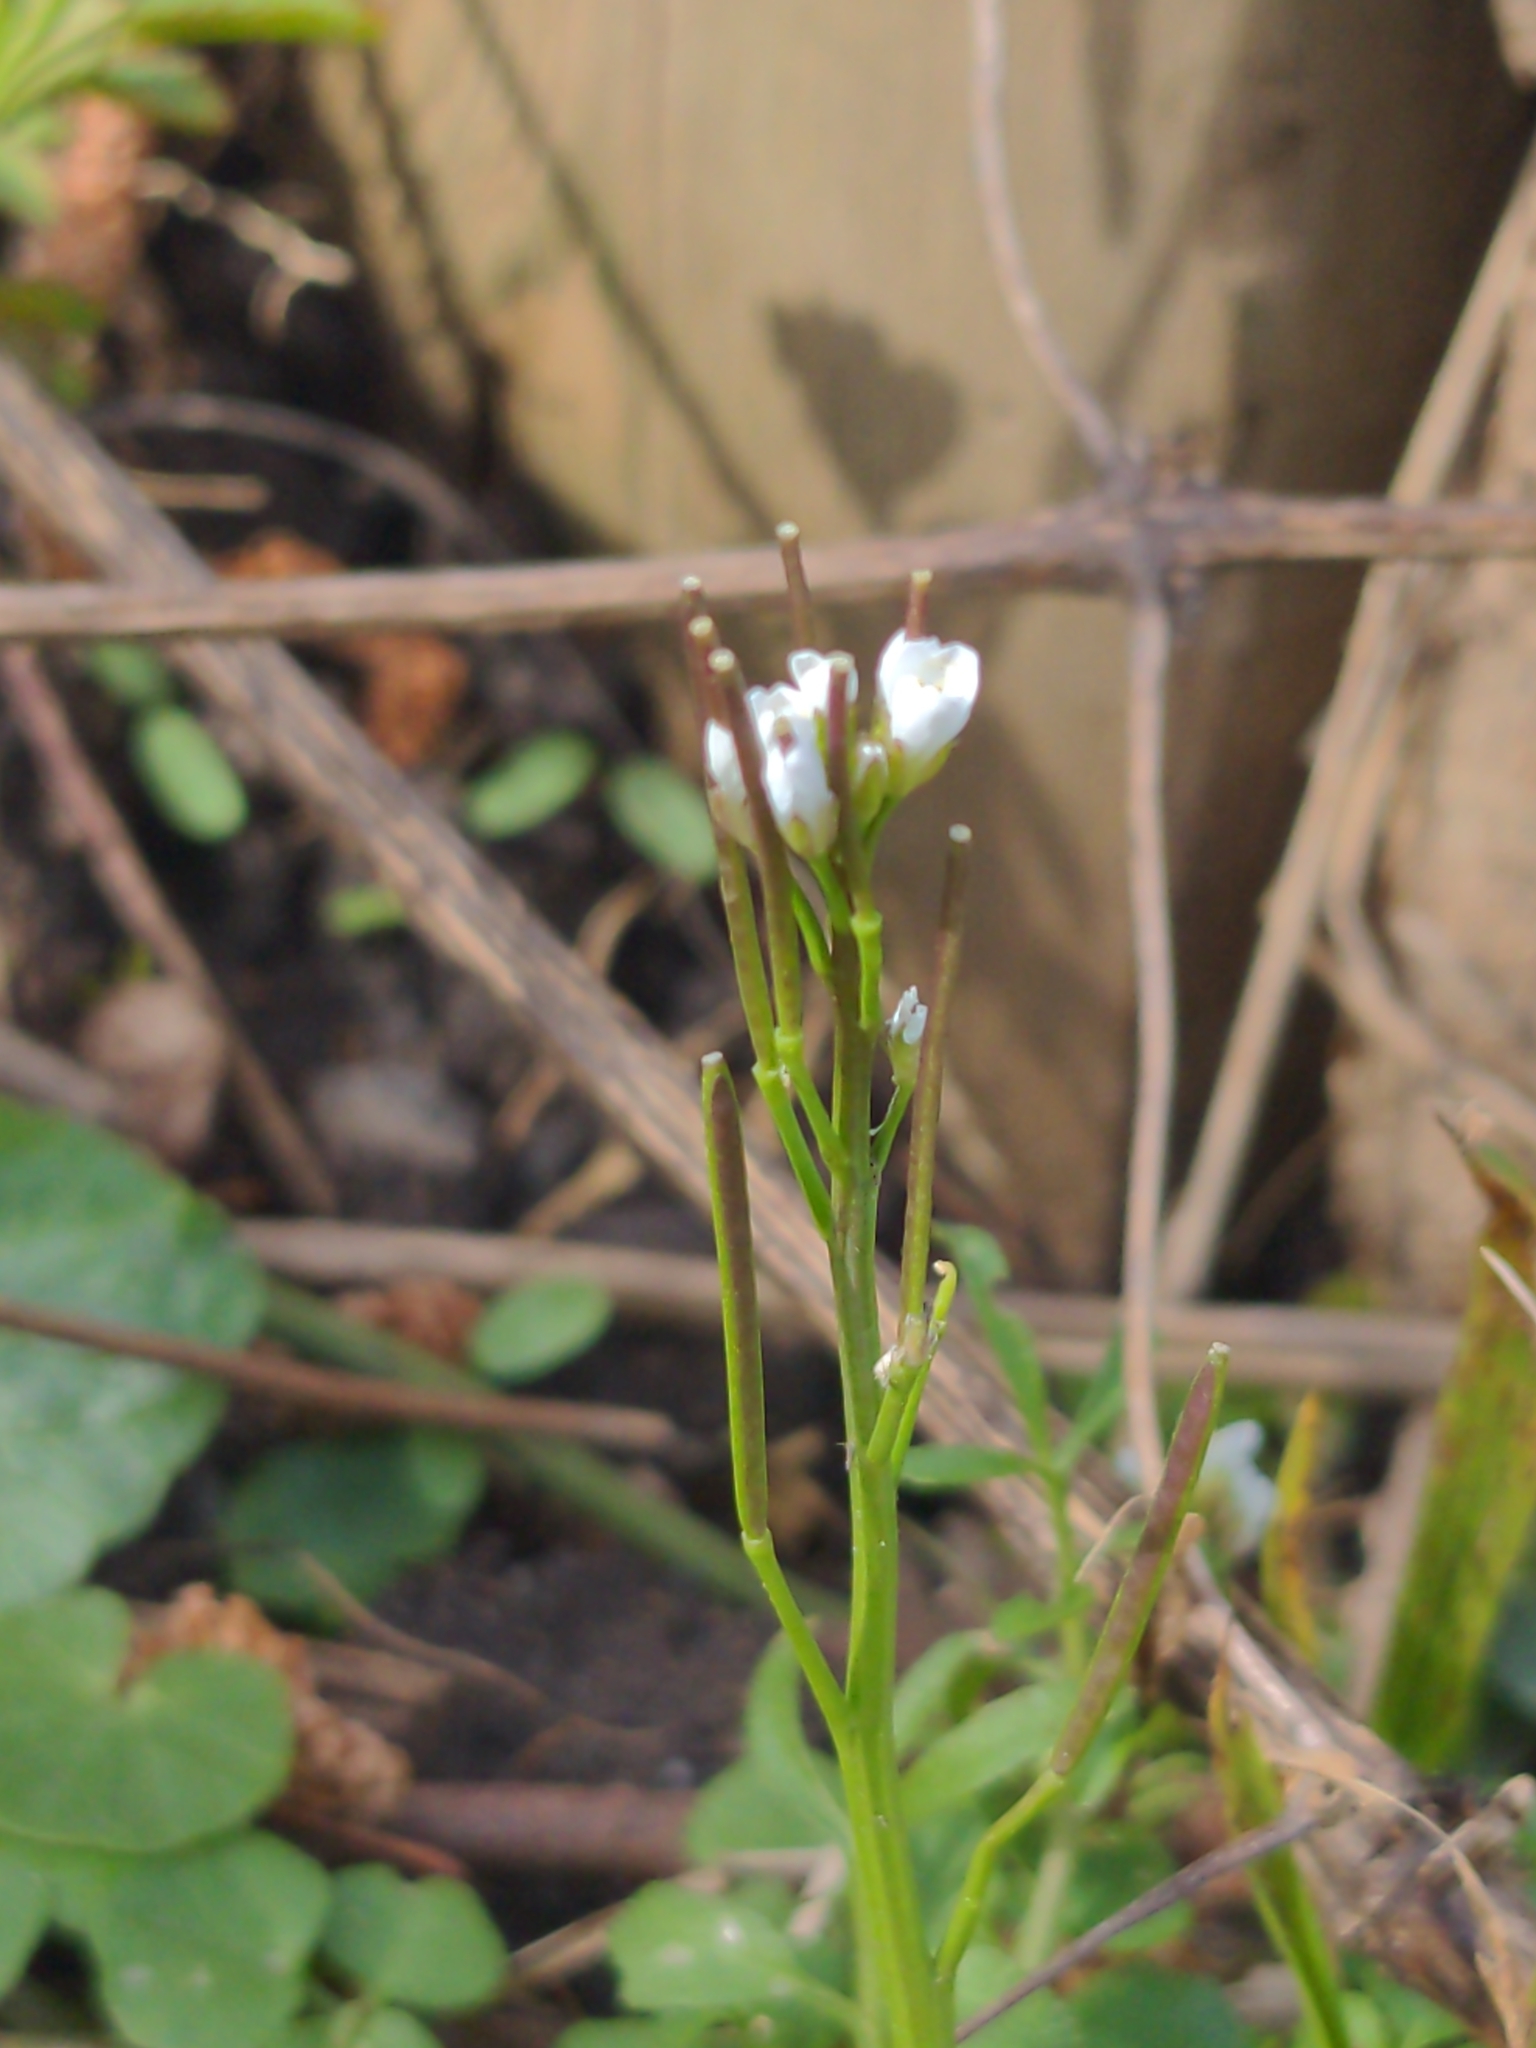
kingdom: Plantae
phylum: Tracheophyta
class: Magnoliopsida
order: Brassicales
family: Brassicaceae
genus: Cardamine
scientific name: Cardamine hirsuta
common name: Hairy bittercress
